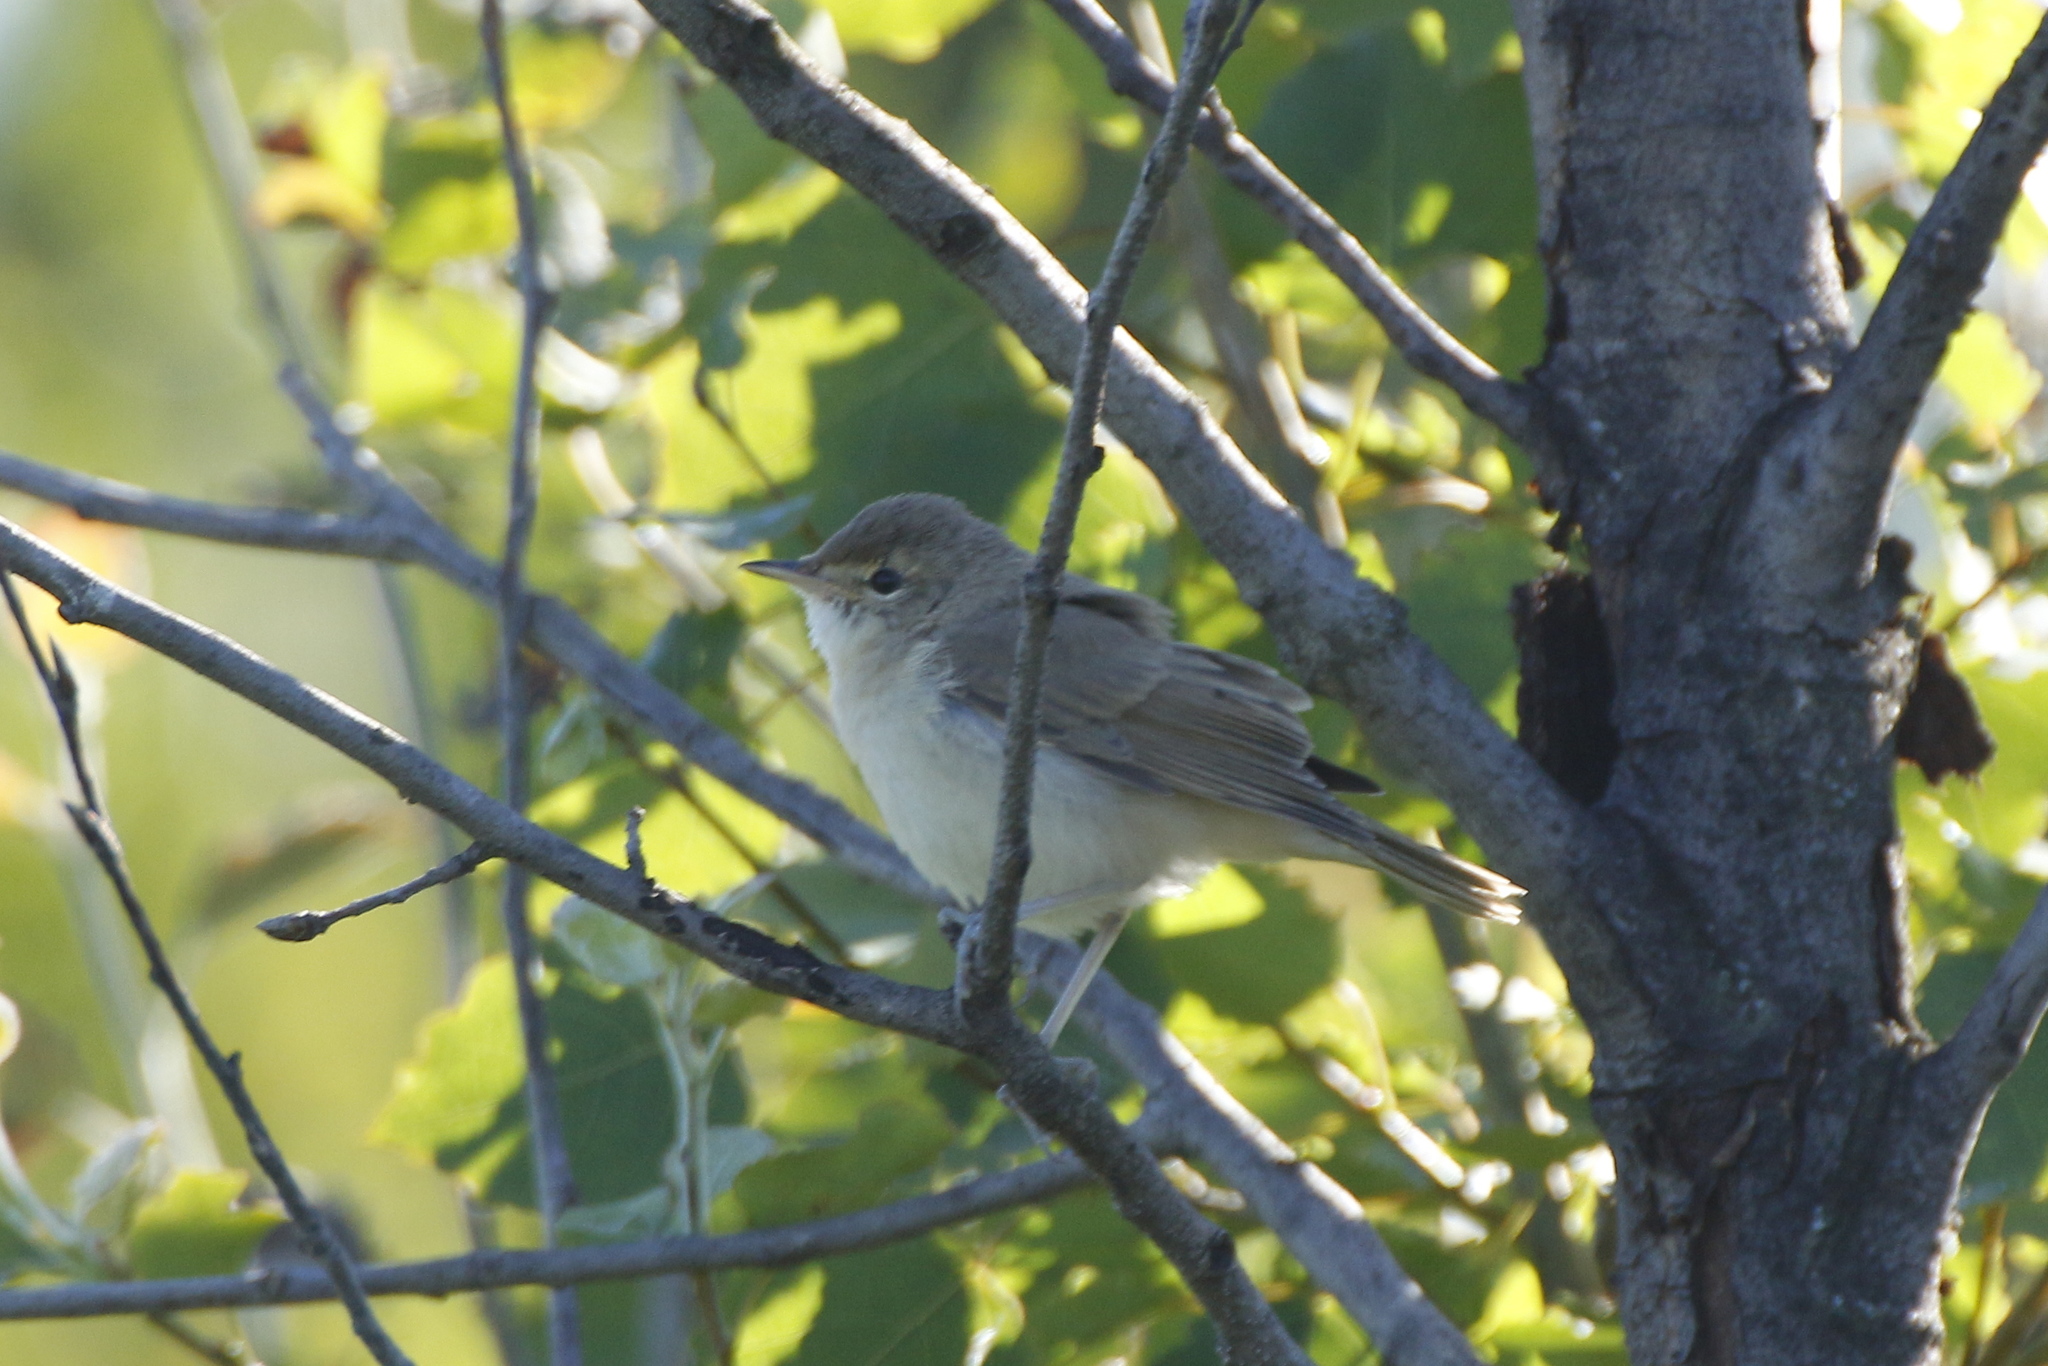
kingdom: Animalia
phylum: Chordata
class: Aves
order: Passeriformes
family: Acrocephalidae
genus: Acrocephalus
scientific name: Acrocephalus palustris
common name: Marsh warbler
